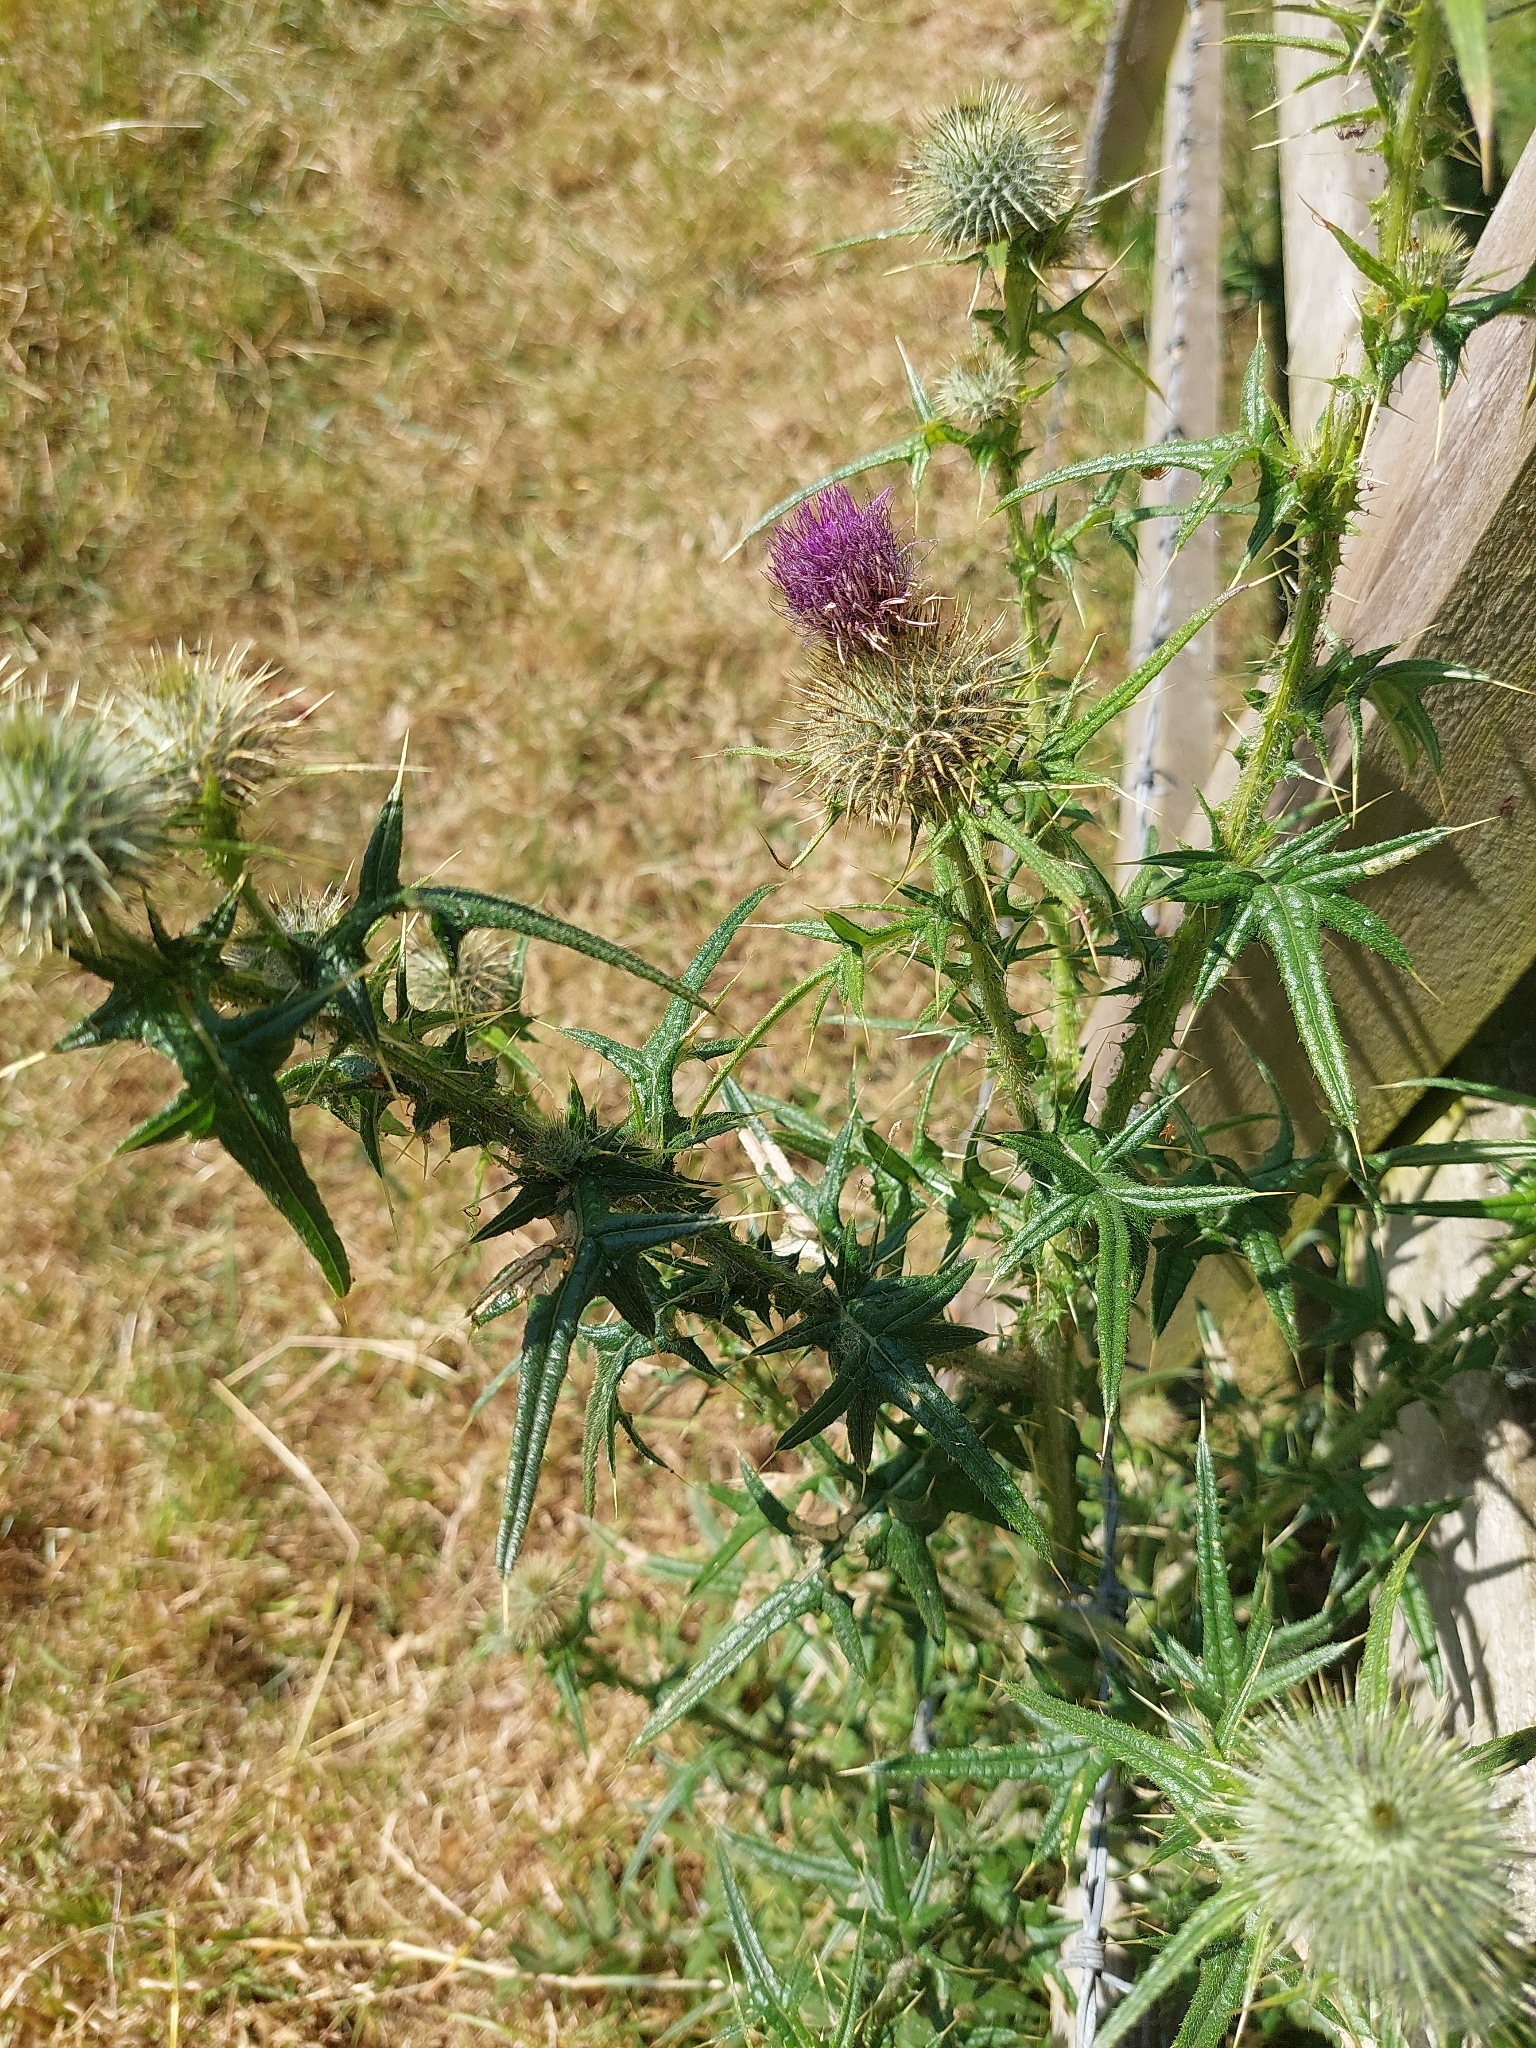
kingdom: Plantae
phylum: Tracheophyta
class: Magnoliopsida
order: Asterales
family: Asteraceae
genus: Cirsium
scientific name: Cirsium vulgare
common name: Bull thistle
